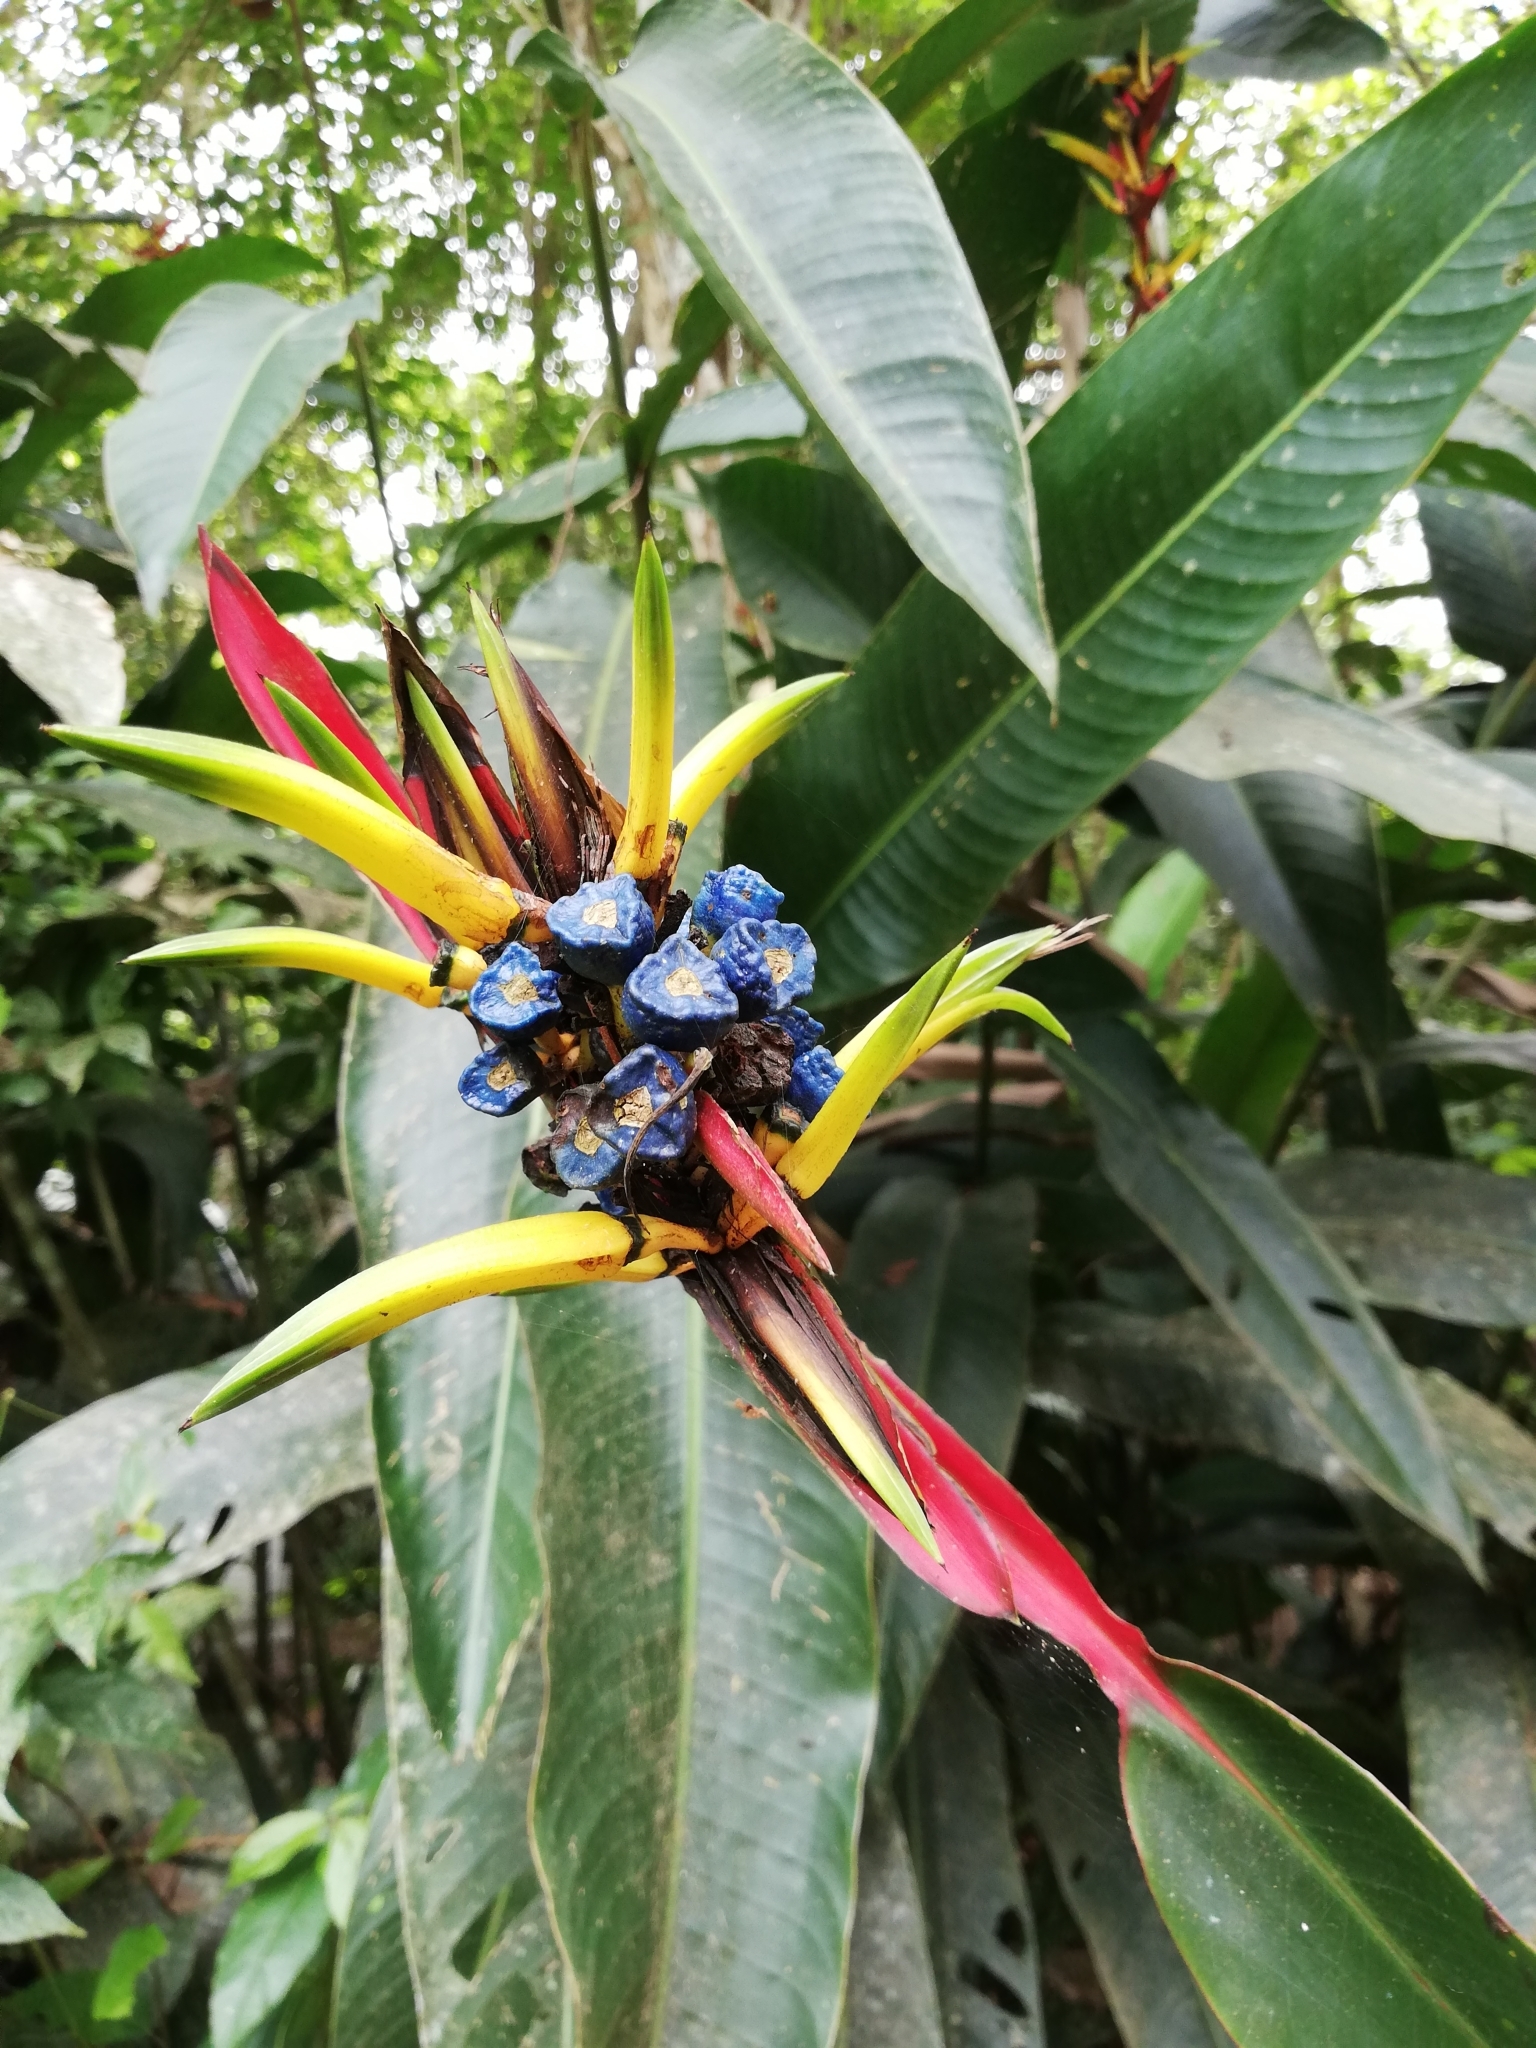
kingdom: Plantae
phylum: Tracheophyta
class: Liliopsida
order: Zingiberales
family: Heliconiaceae
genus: Heliconia
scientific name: Heliconia vaginalis
